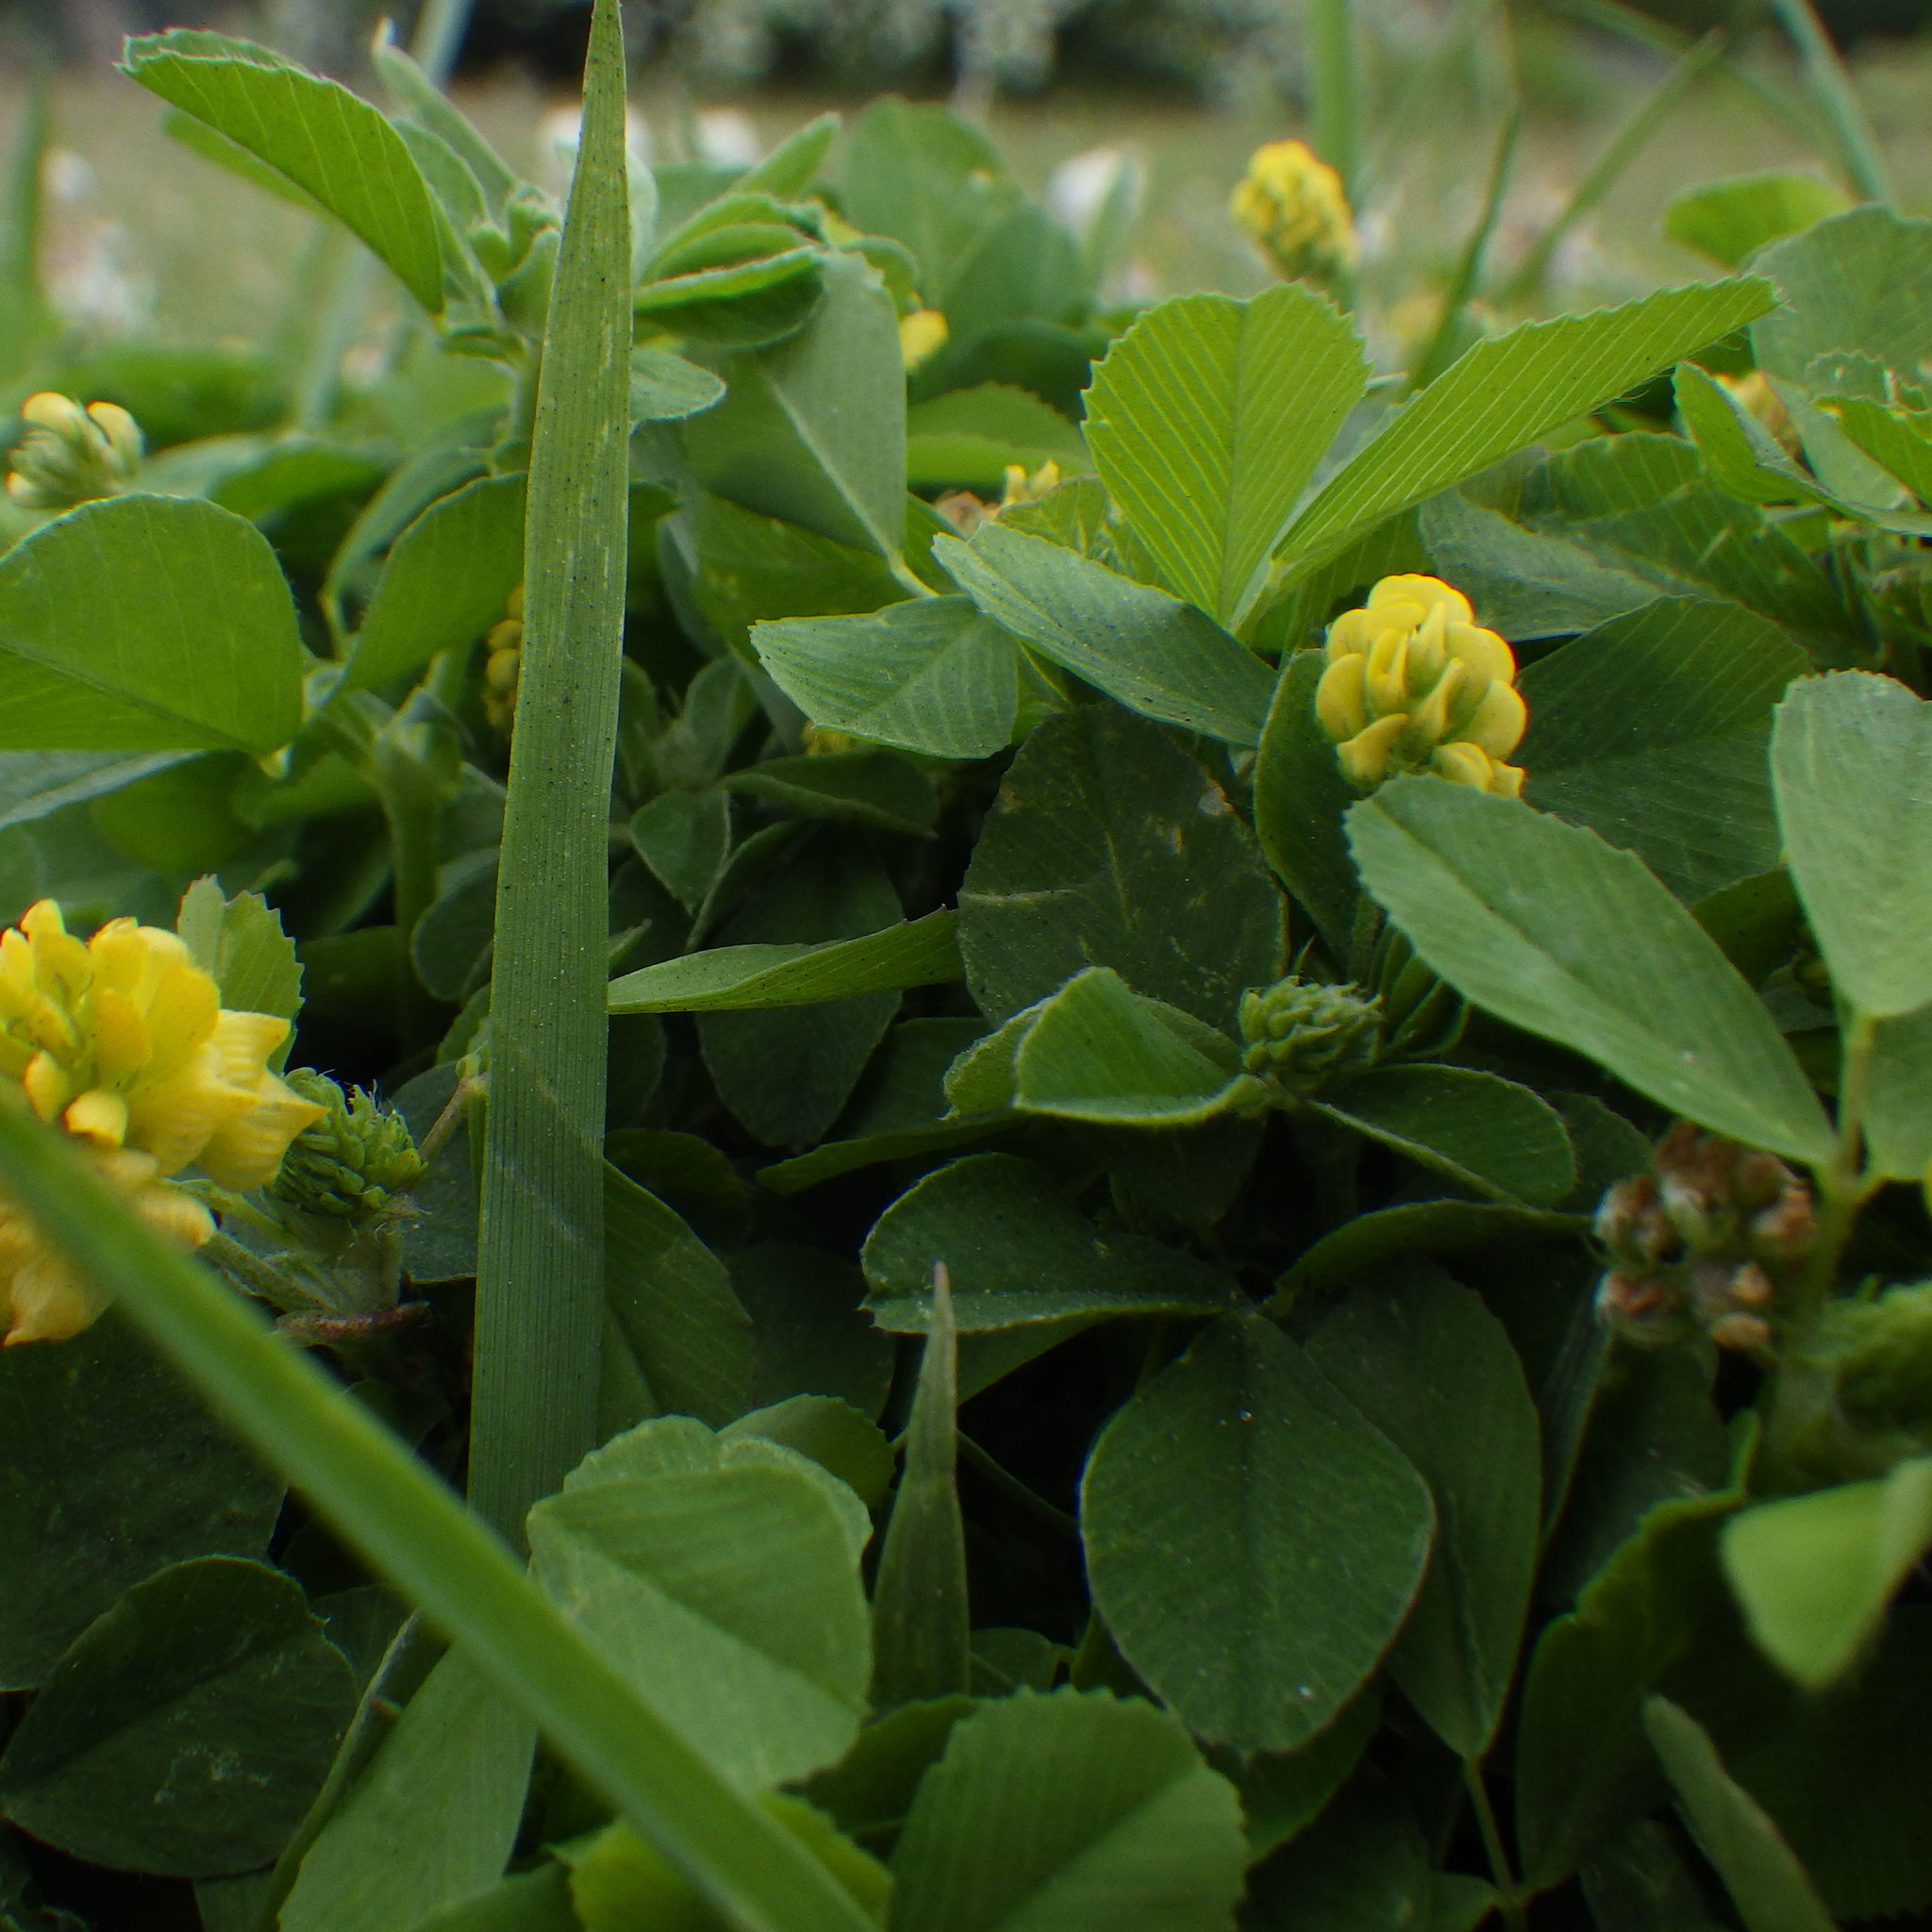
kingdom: Plantae
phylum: Tracheophyta
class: Magnoliopsida
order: Fabales
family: Fabaceae
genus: Medicago
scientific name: Medicago lupulina
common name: Black medick
